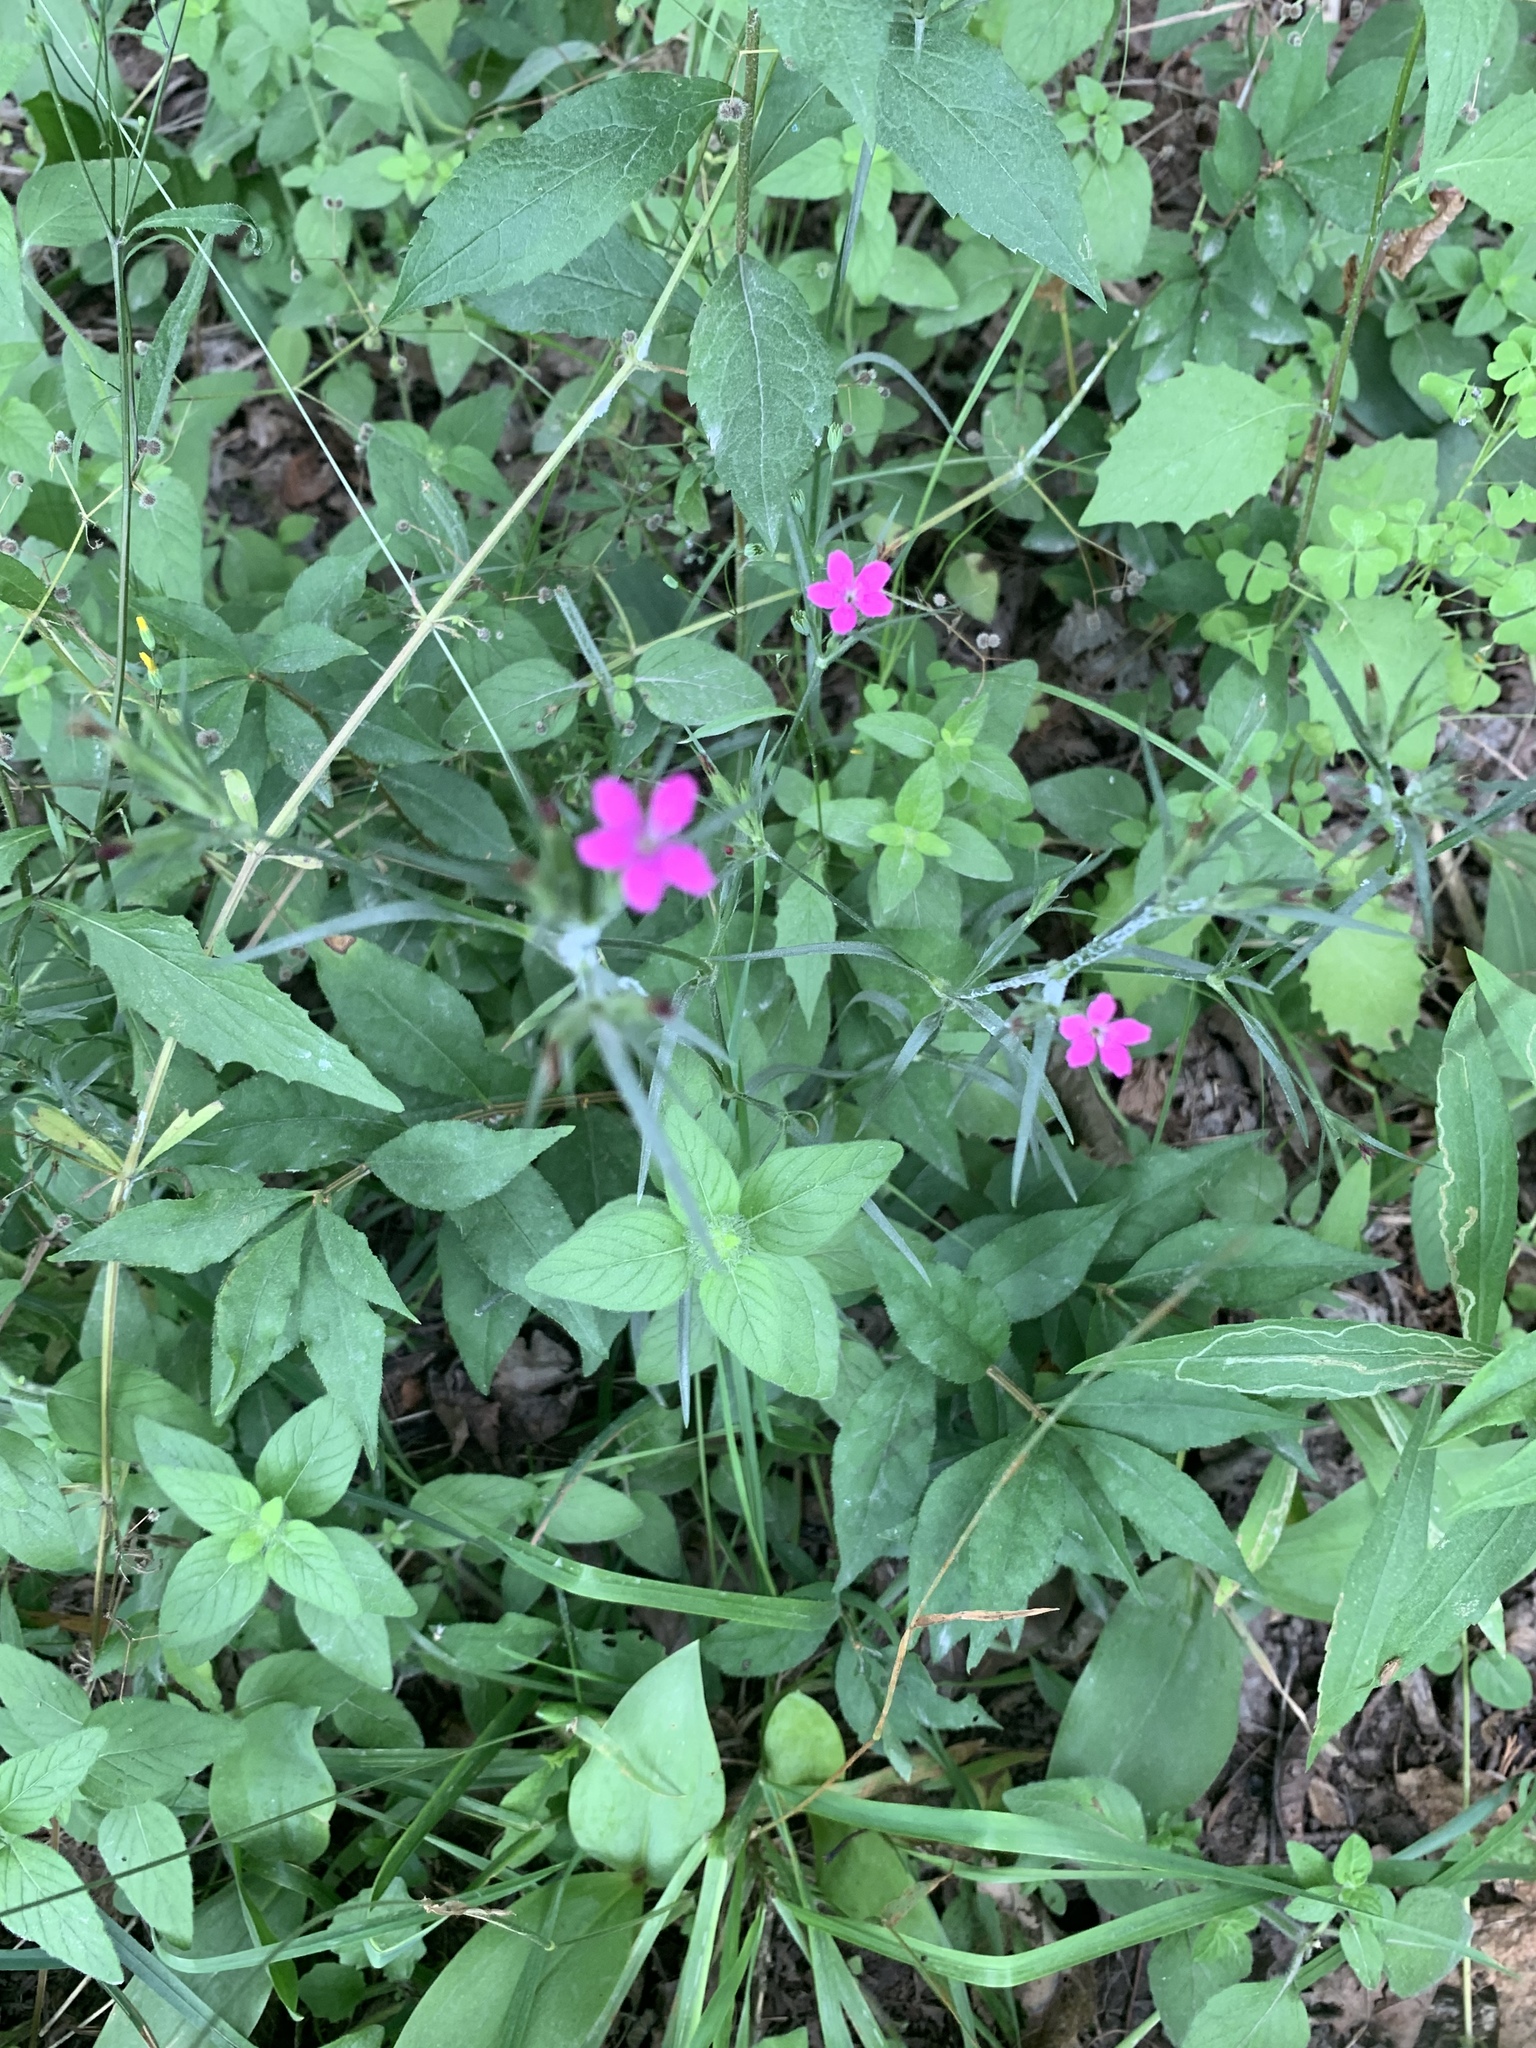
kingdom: Plantae
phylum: Tracheophyta
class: Magnoliopsida
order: Caryophyllales
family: Caryophyllaceae
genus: Dianthus
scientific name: Dianthus armeria
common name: Deptford pink
